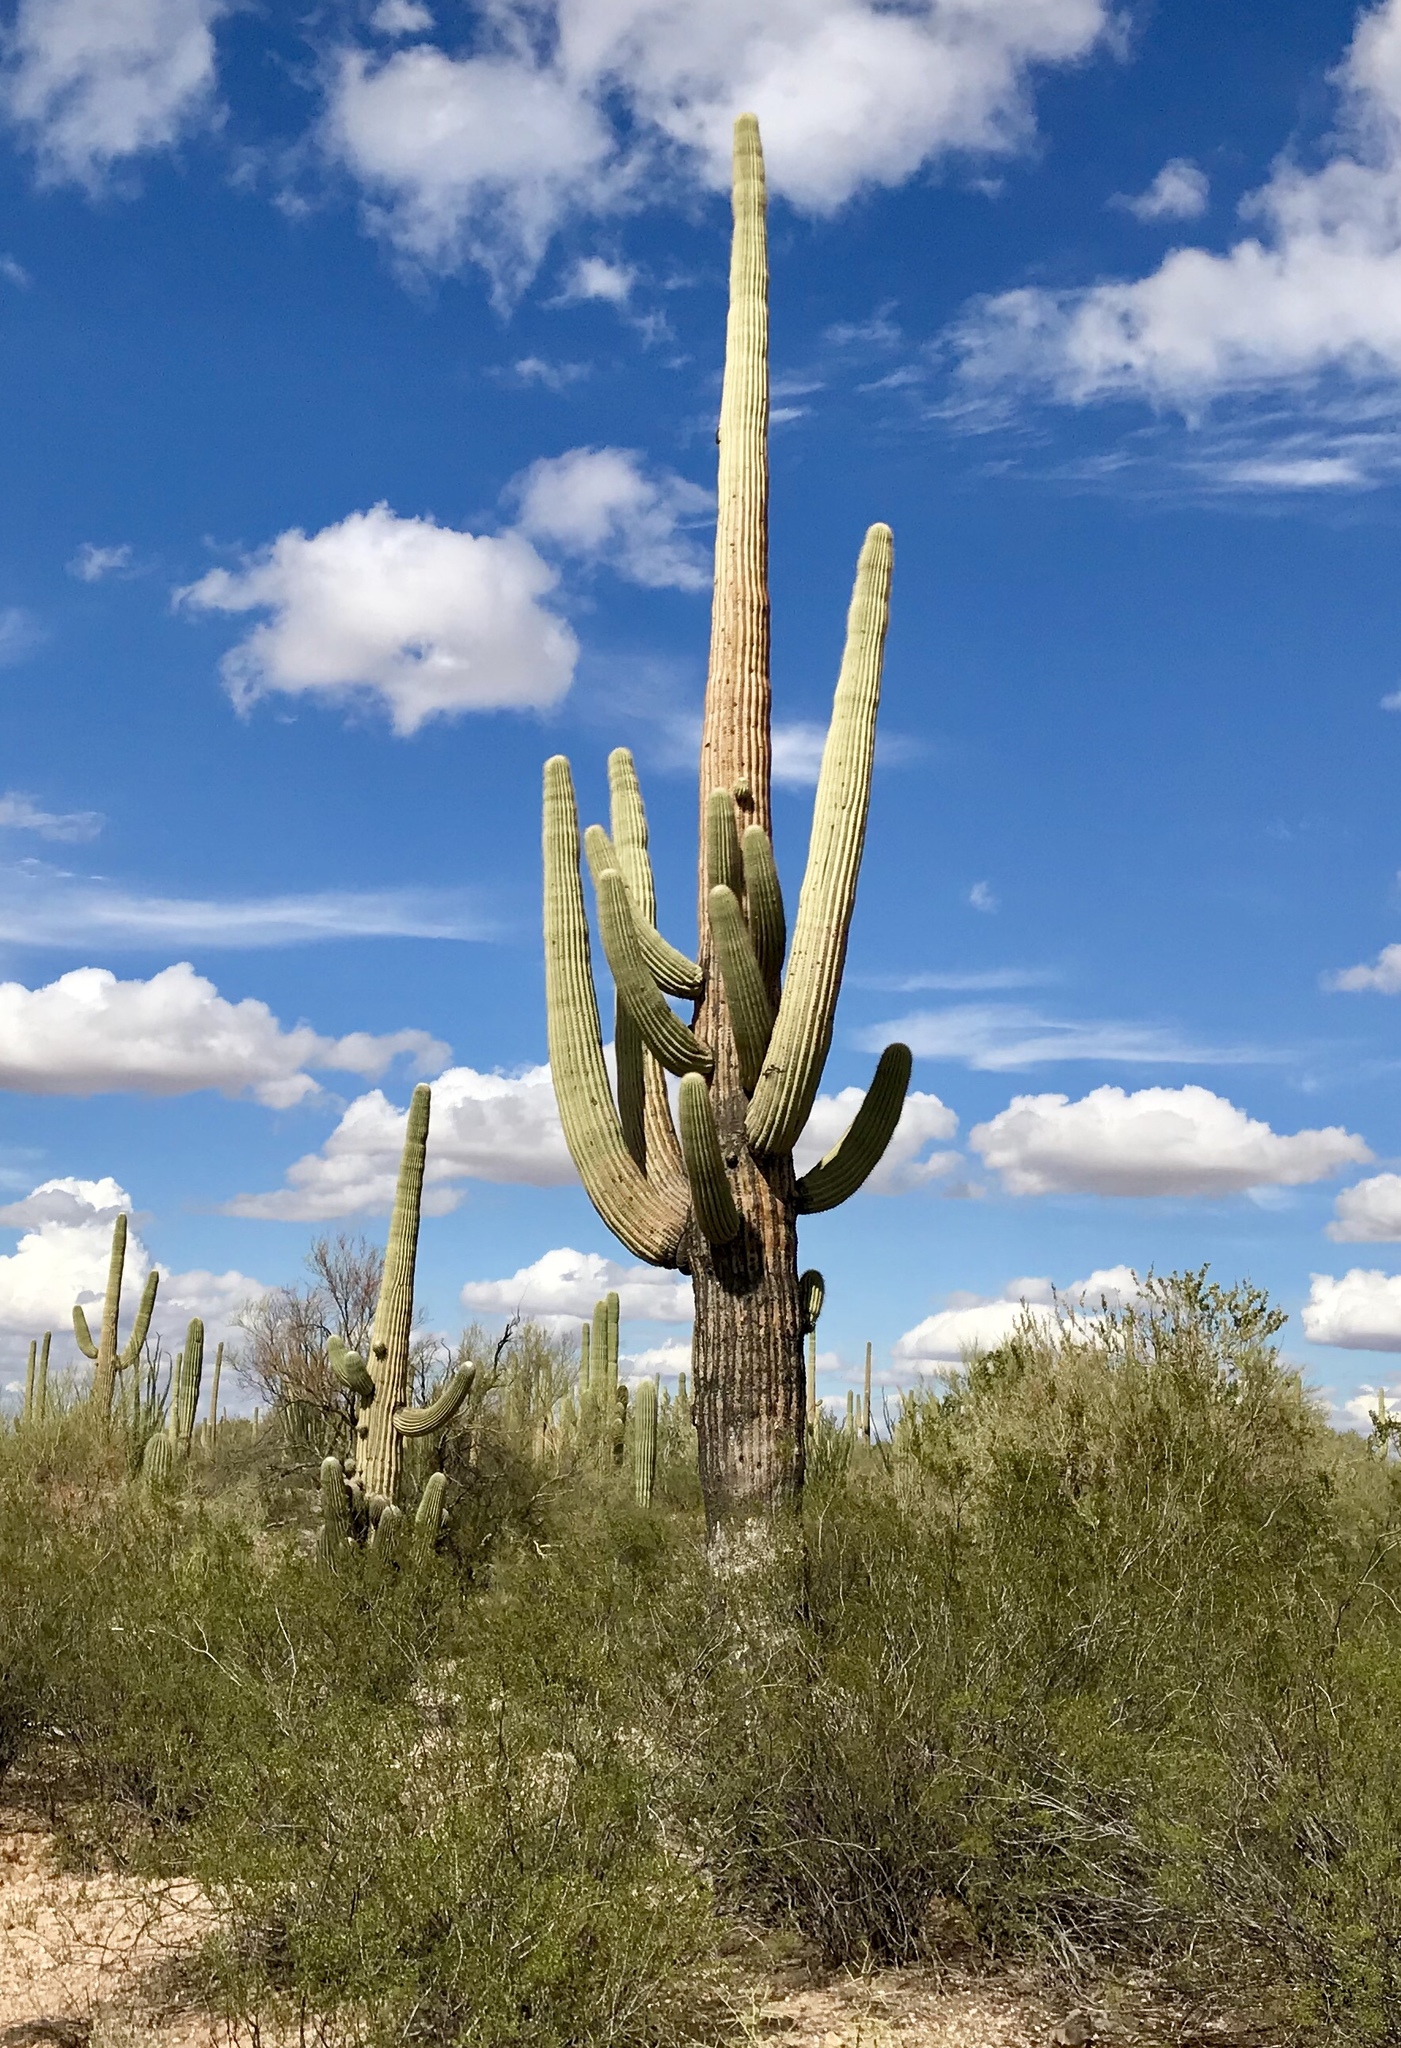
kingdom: Plantae
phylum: Tracheophyta
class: Magnoliopsida
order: Caryophyllales
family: Cactaceae
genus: Carnegiea
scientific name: Carnegiea gigantea
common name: Saguaro
